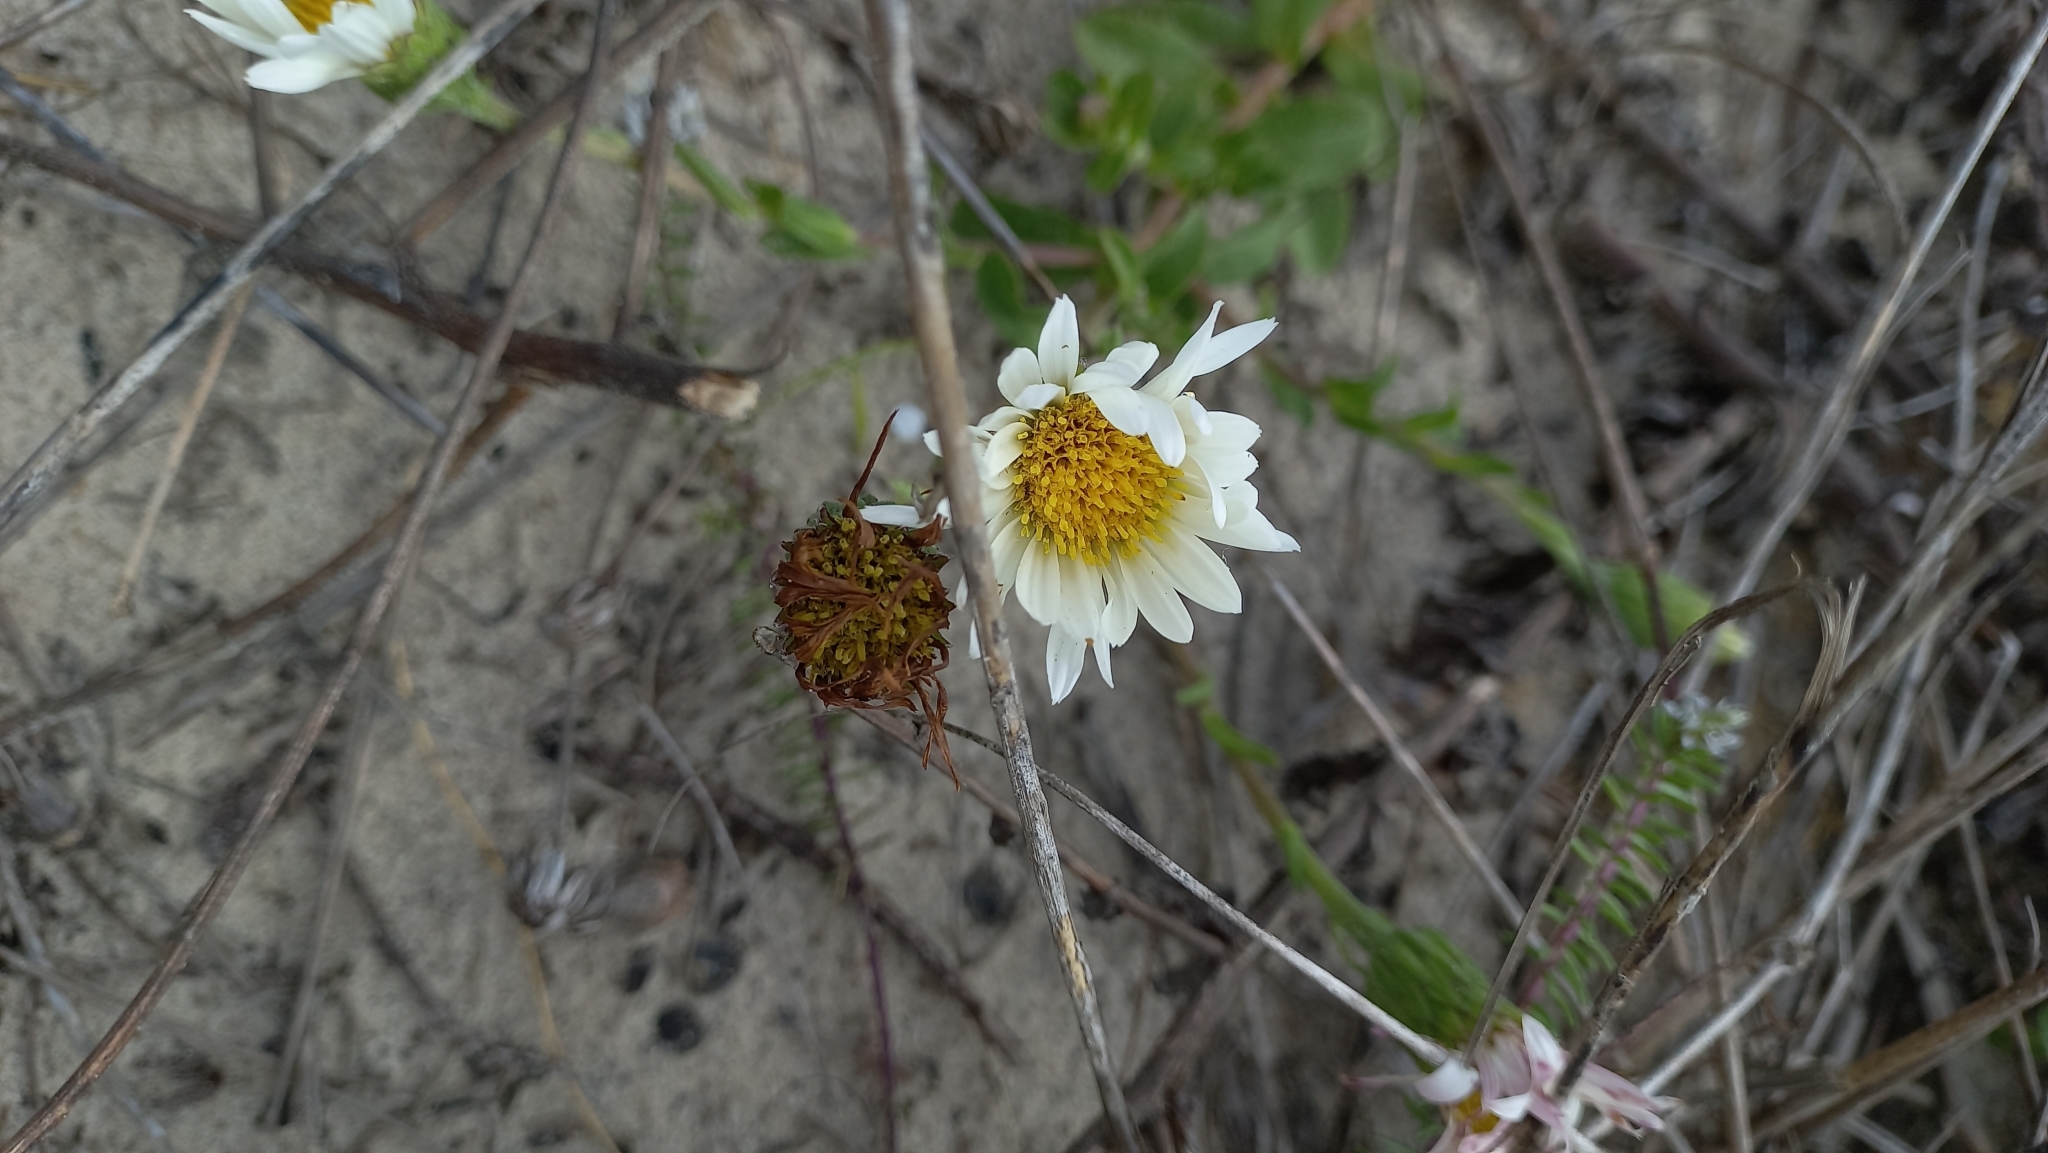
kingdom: Plantae
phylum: Tracheophyta
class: Magnoliopsida
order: Asterales
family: Asteraceae
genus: Noticastrum
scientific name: Noticastrum hatschbachii
